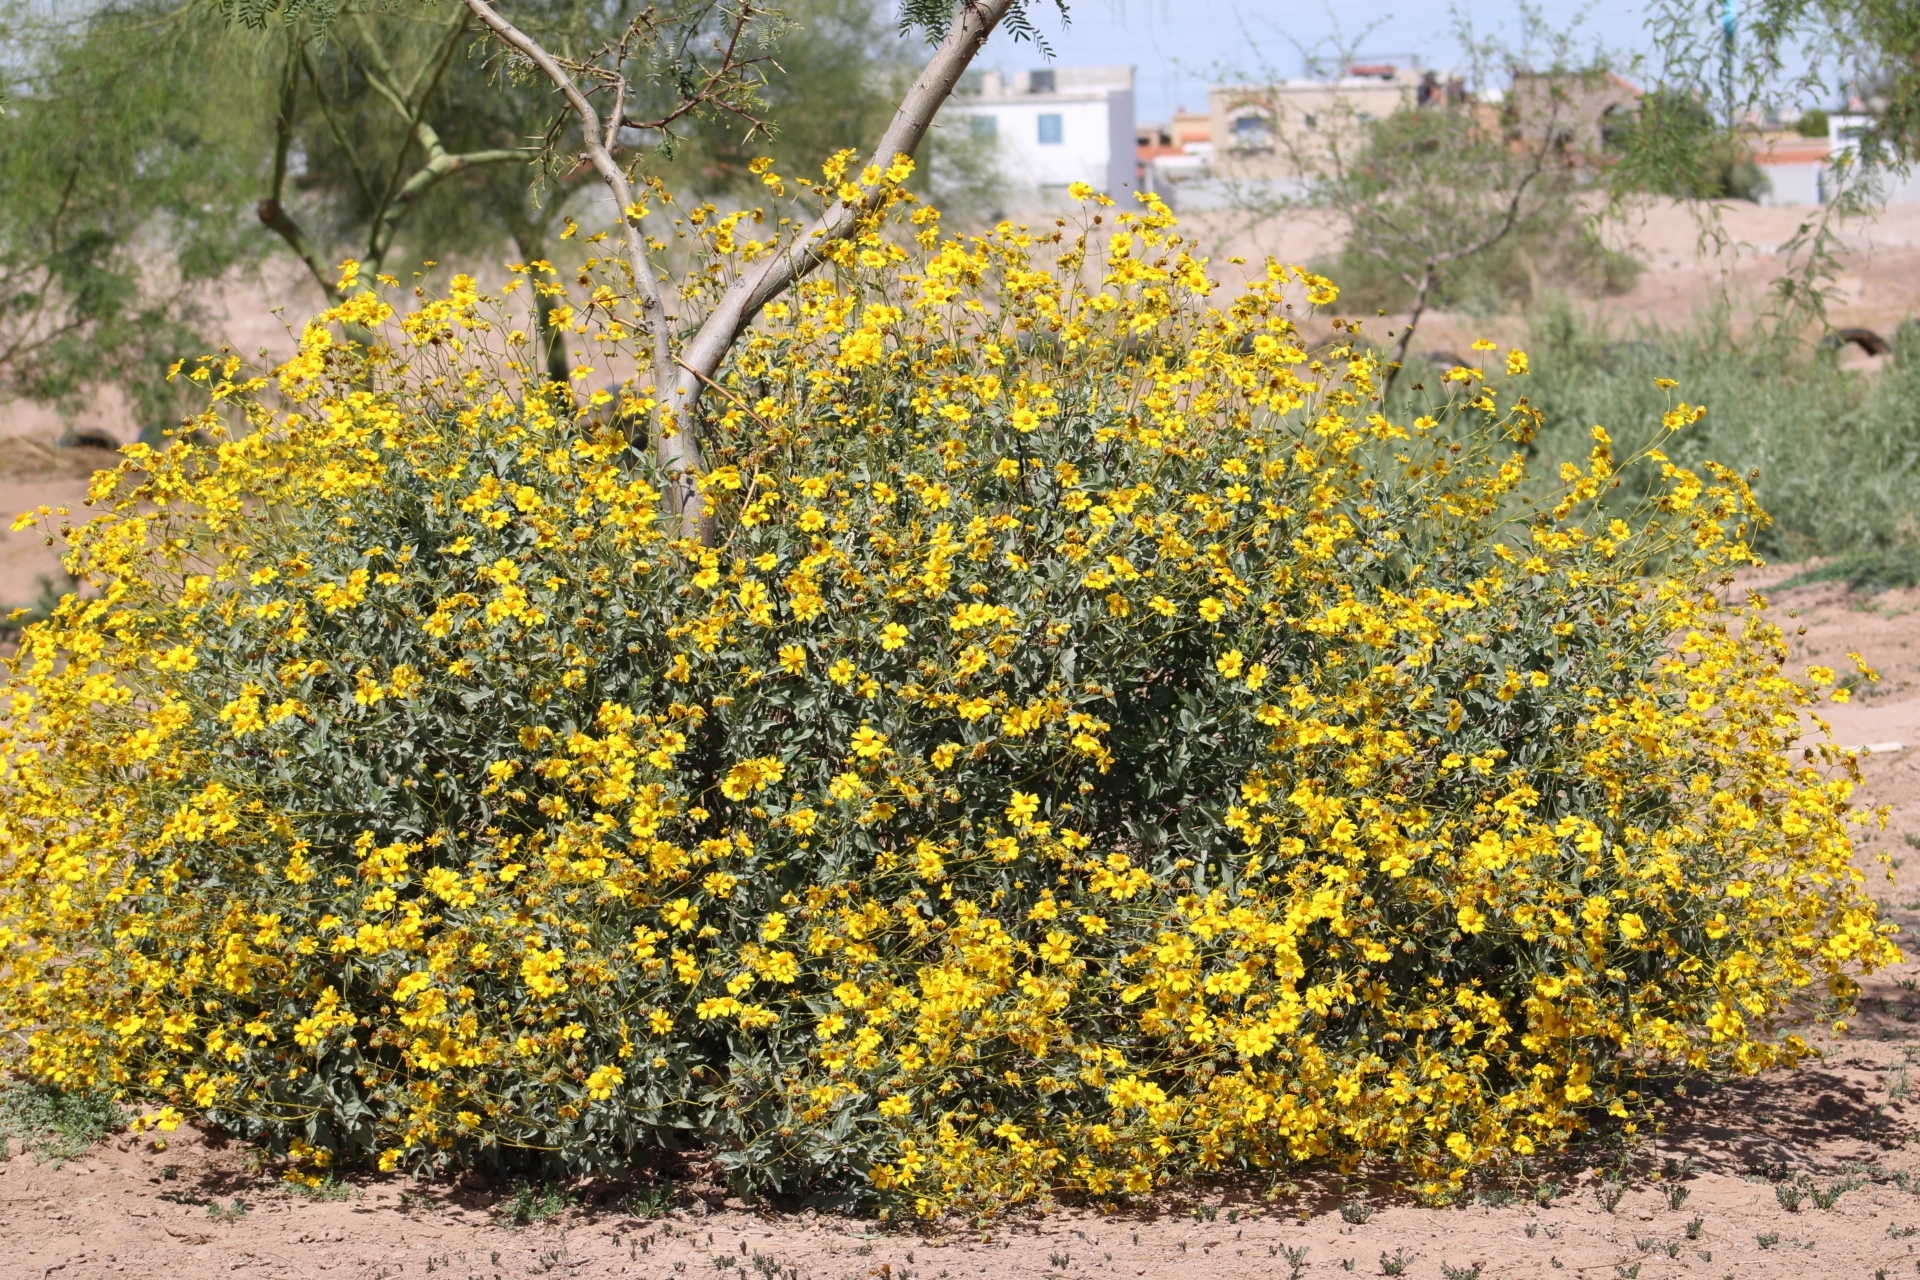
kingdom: Plantae
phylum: Tracheophyta
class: Magnoliopsida
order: Asterales
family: Asteraceae
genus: Encelia
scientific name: Encelia farinosa
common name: Brittlebush
